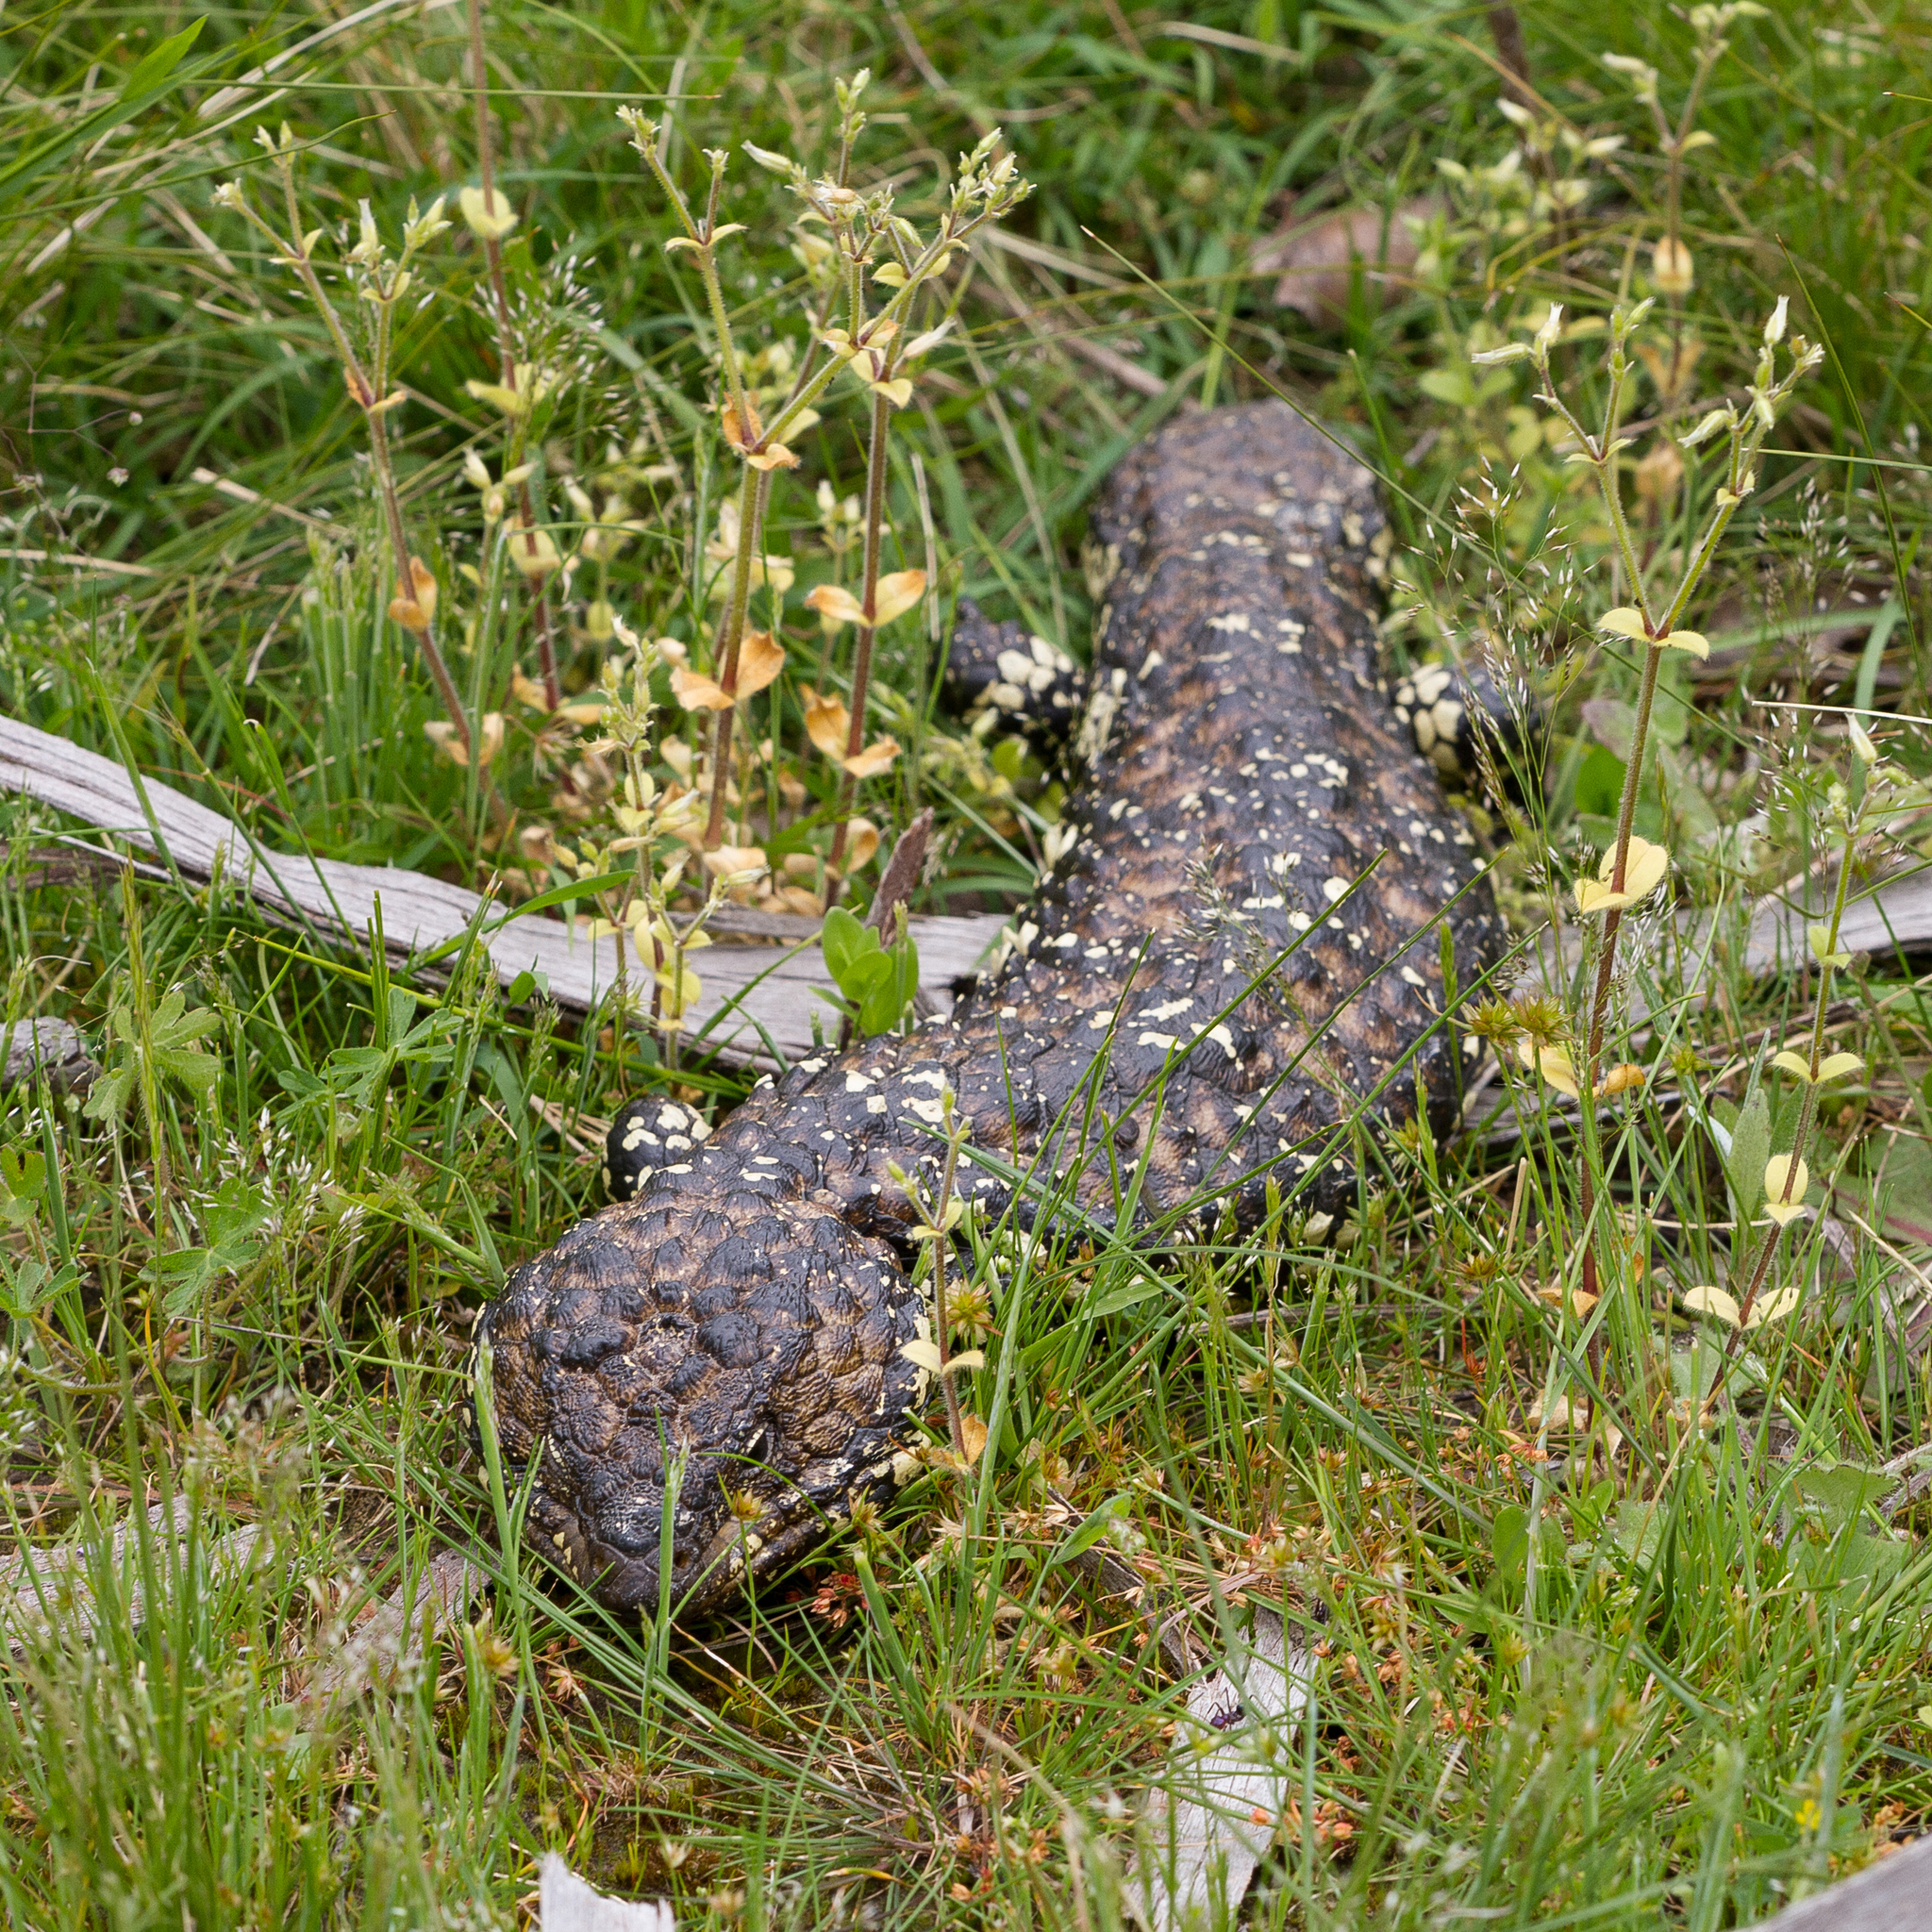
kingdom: Animalia
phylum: Chordata
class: Squamata
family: Scincidae
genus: Tiliqua
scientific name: Tiliqua rugosa
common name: Pinecone lizard
